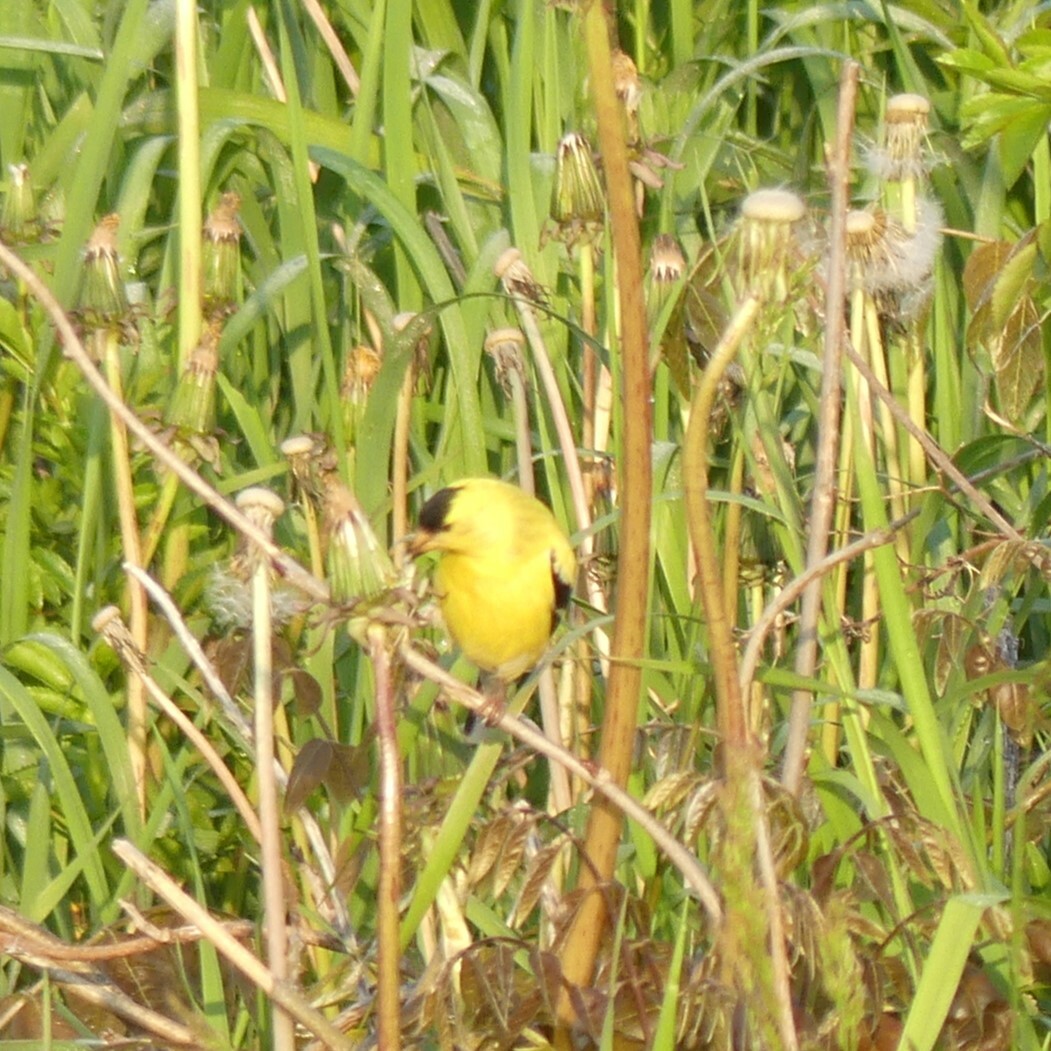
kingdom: Animalia
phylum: Chordata
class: Aves
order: Passeriformes
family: Fringillidae
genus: Spinus
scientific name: Spinus tristis
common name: American goldfinch
